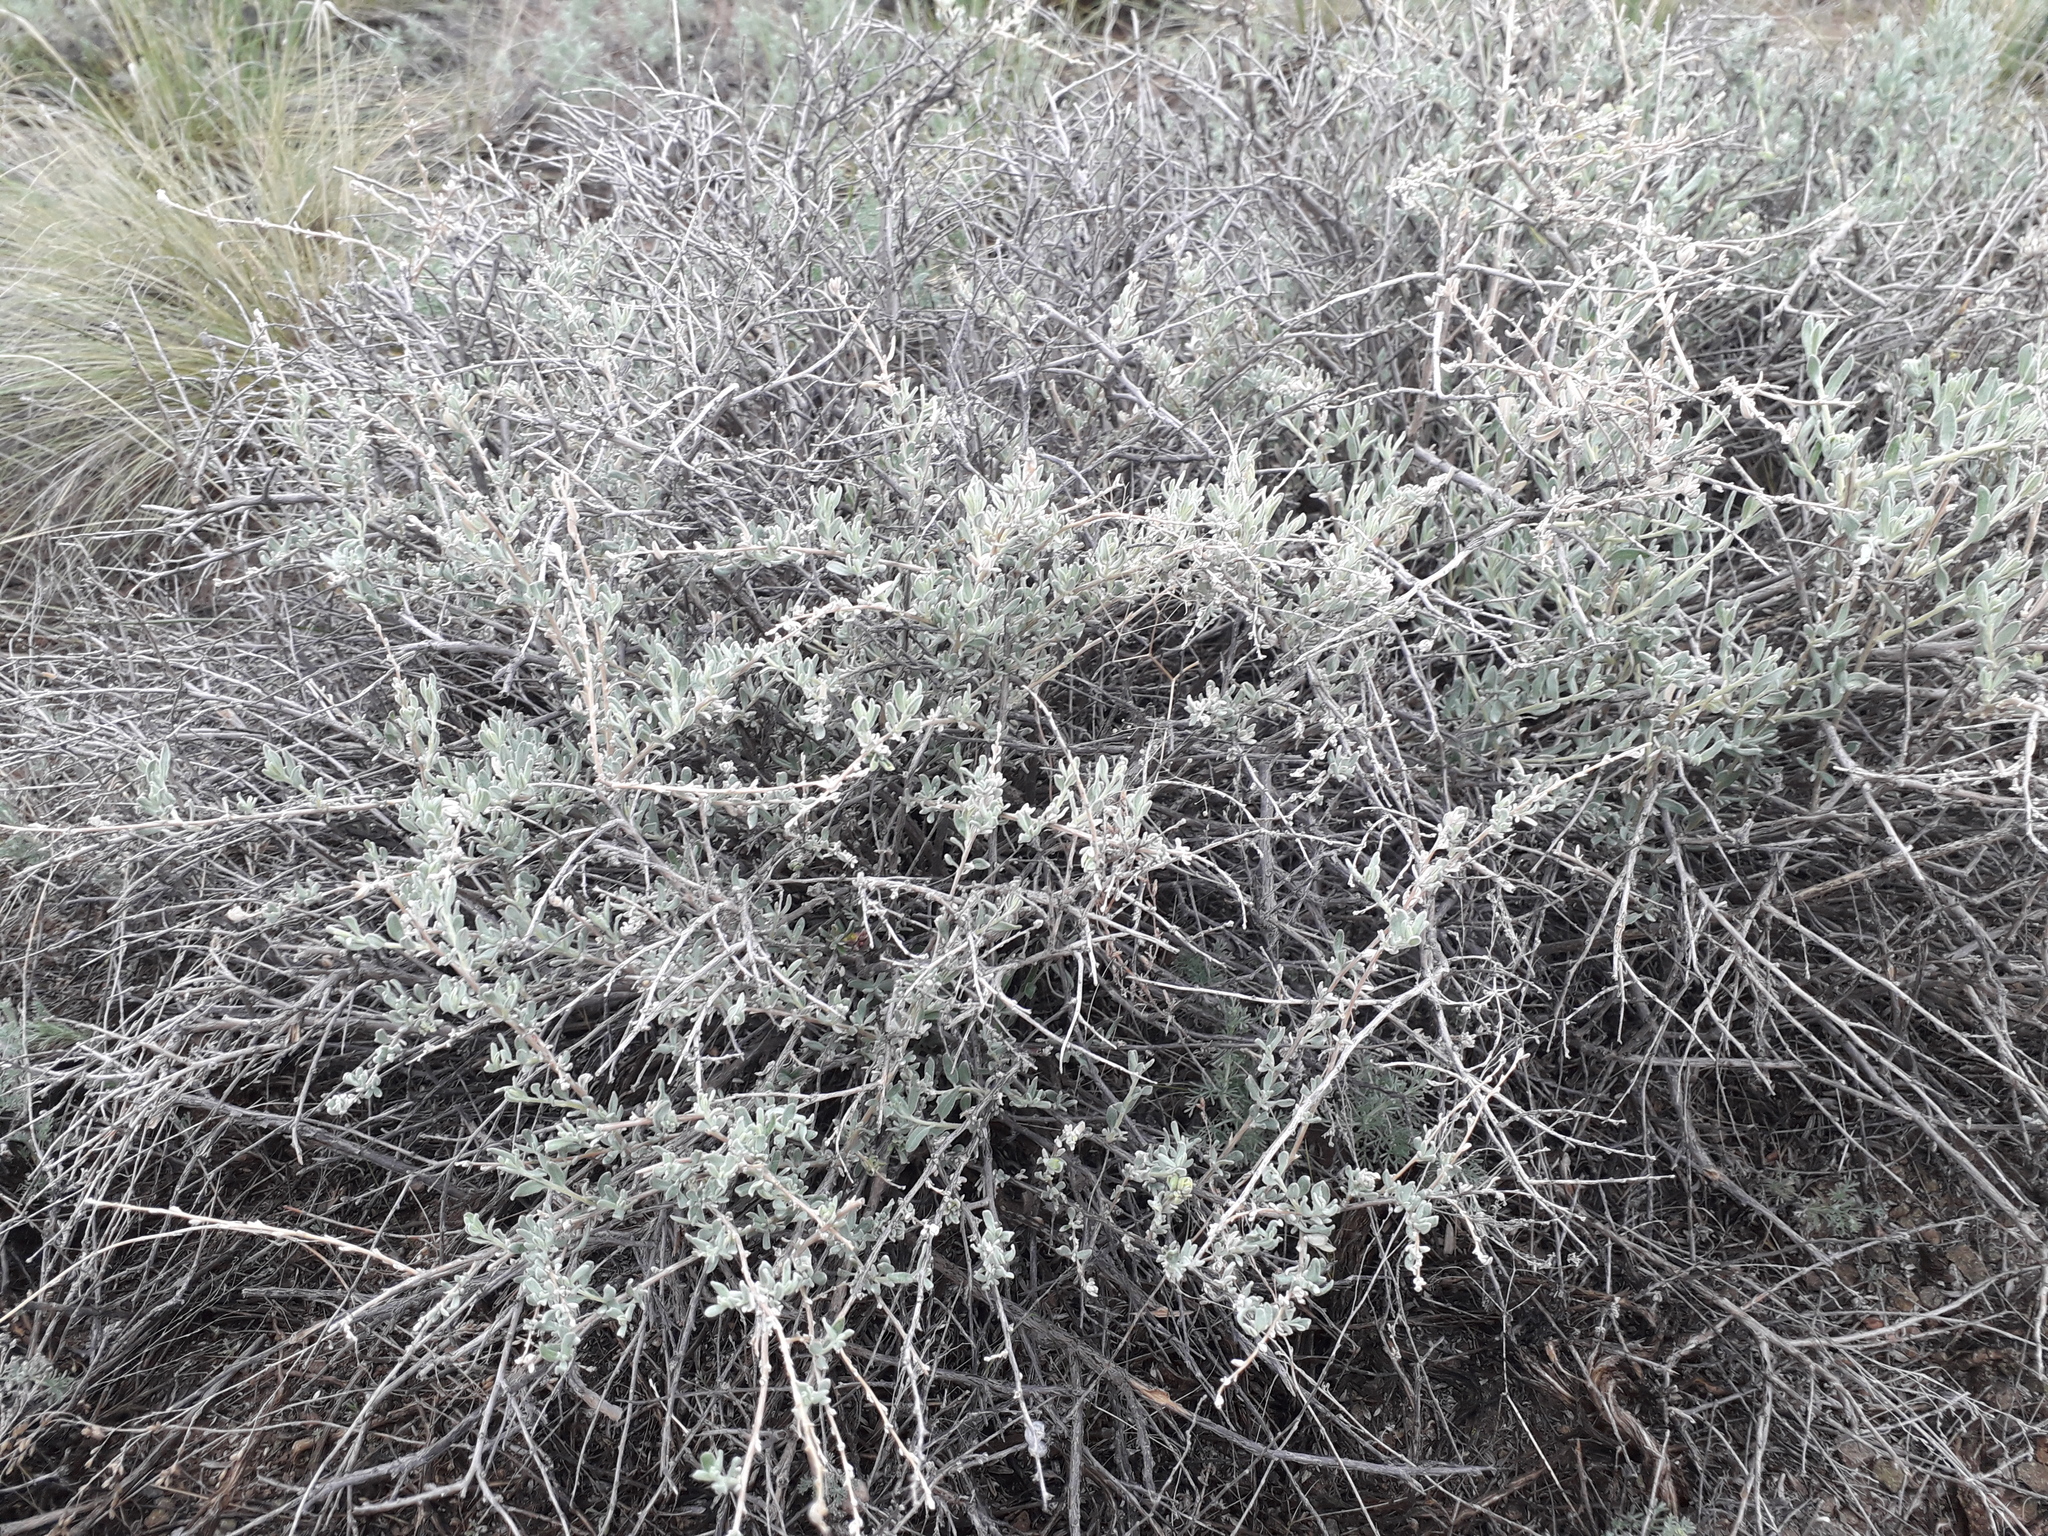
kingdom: Plantae
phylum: Tracheophyta
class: Magnoliopsida
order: Caryophyllales
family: Amaranthaceae
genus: Krascheninnikovia
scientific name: Krascheninnikovia ceratoides
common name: Pamirian winterfat
